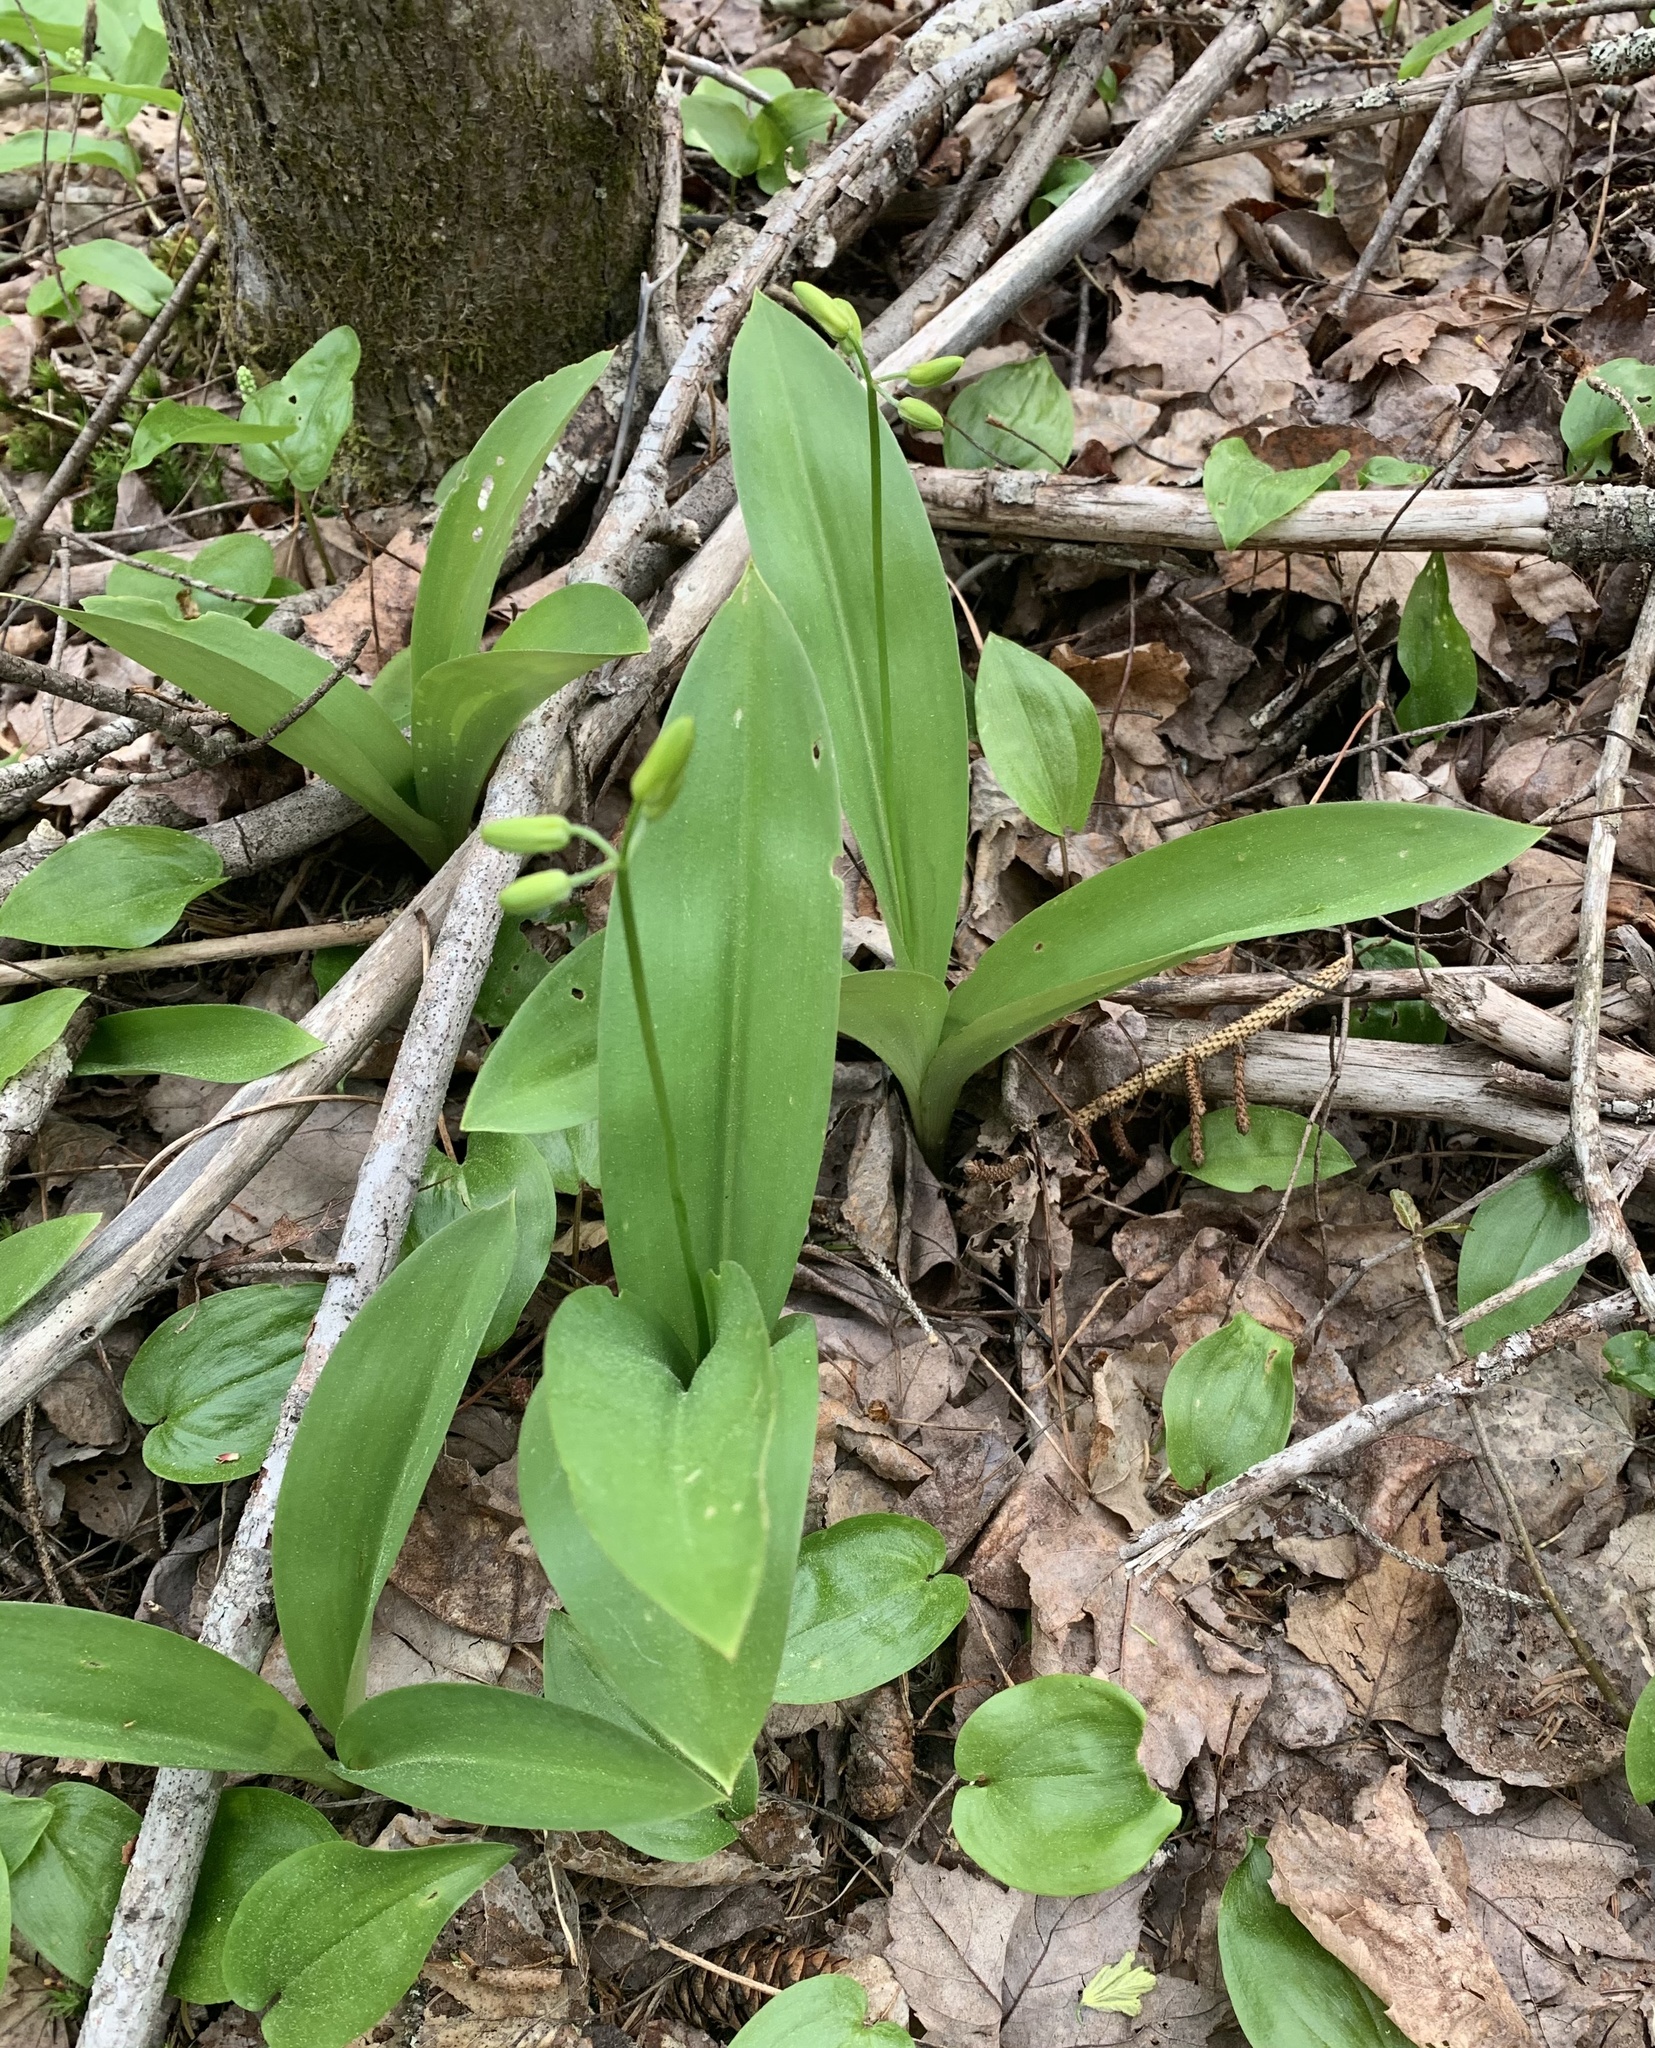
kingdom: Plantae
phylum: Tracheophyta
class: Liliopsida
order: Liliales
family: Liliaceae
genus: Clintonia
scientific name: Clintonia borealis
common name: Yellow clintonia
